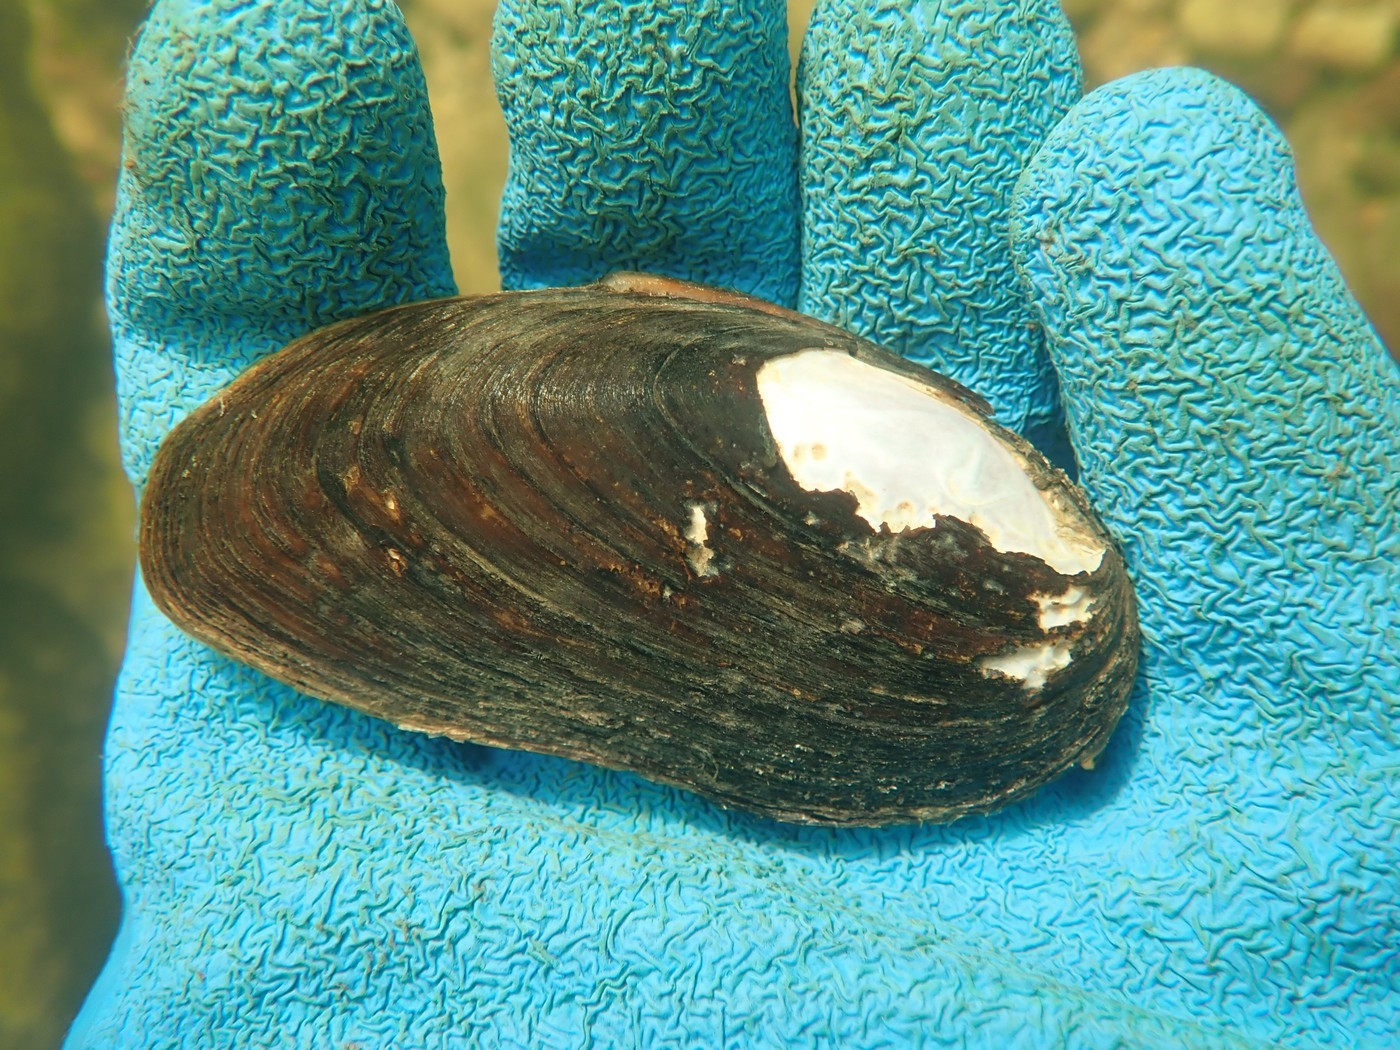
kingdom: Animalia
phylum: Mollusca
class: Bivalvia
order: Unionida
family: Unionidae
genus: Eurynia
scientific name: Eurynia dilatata
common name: Spike
